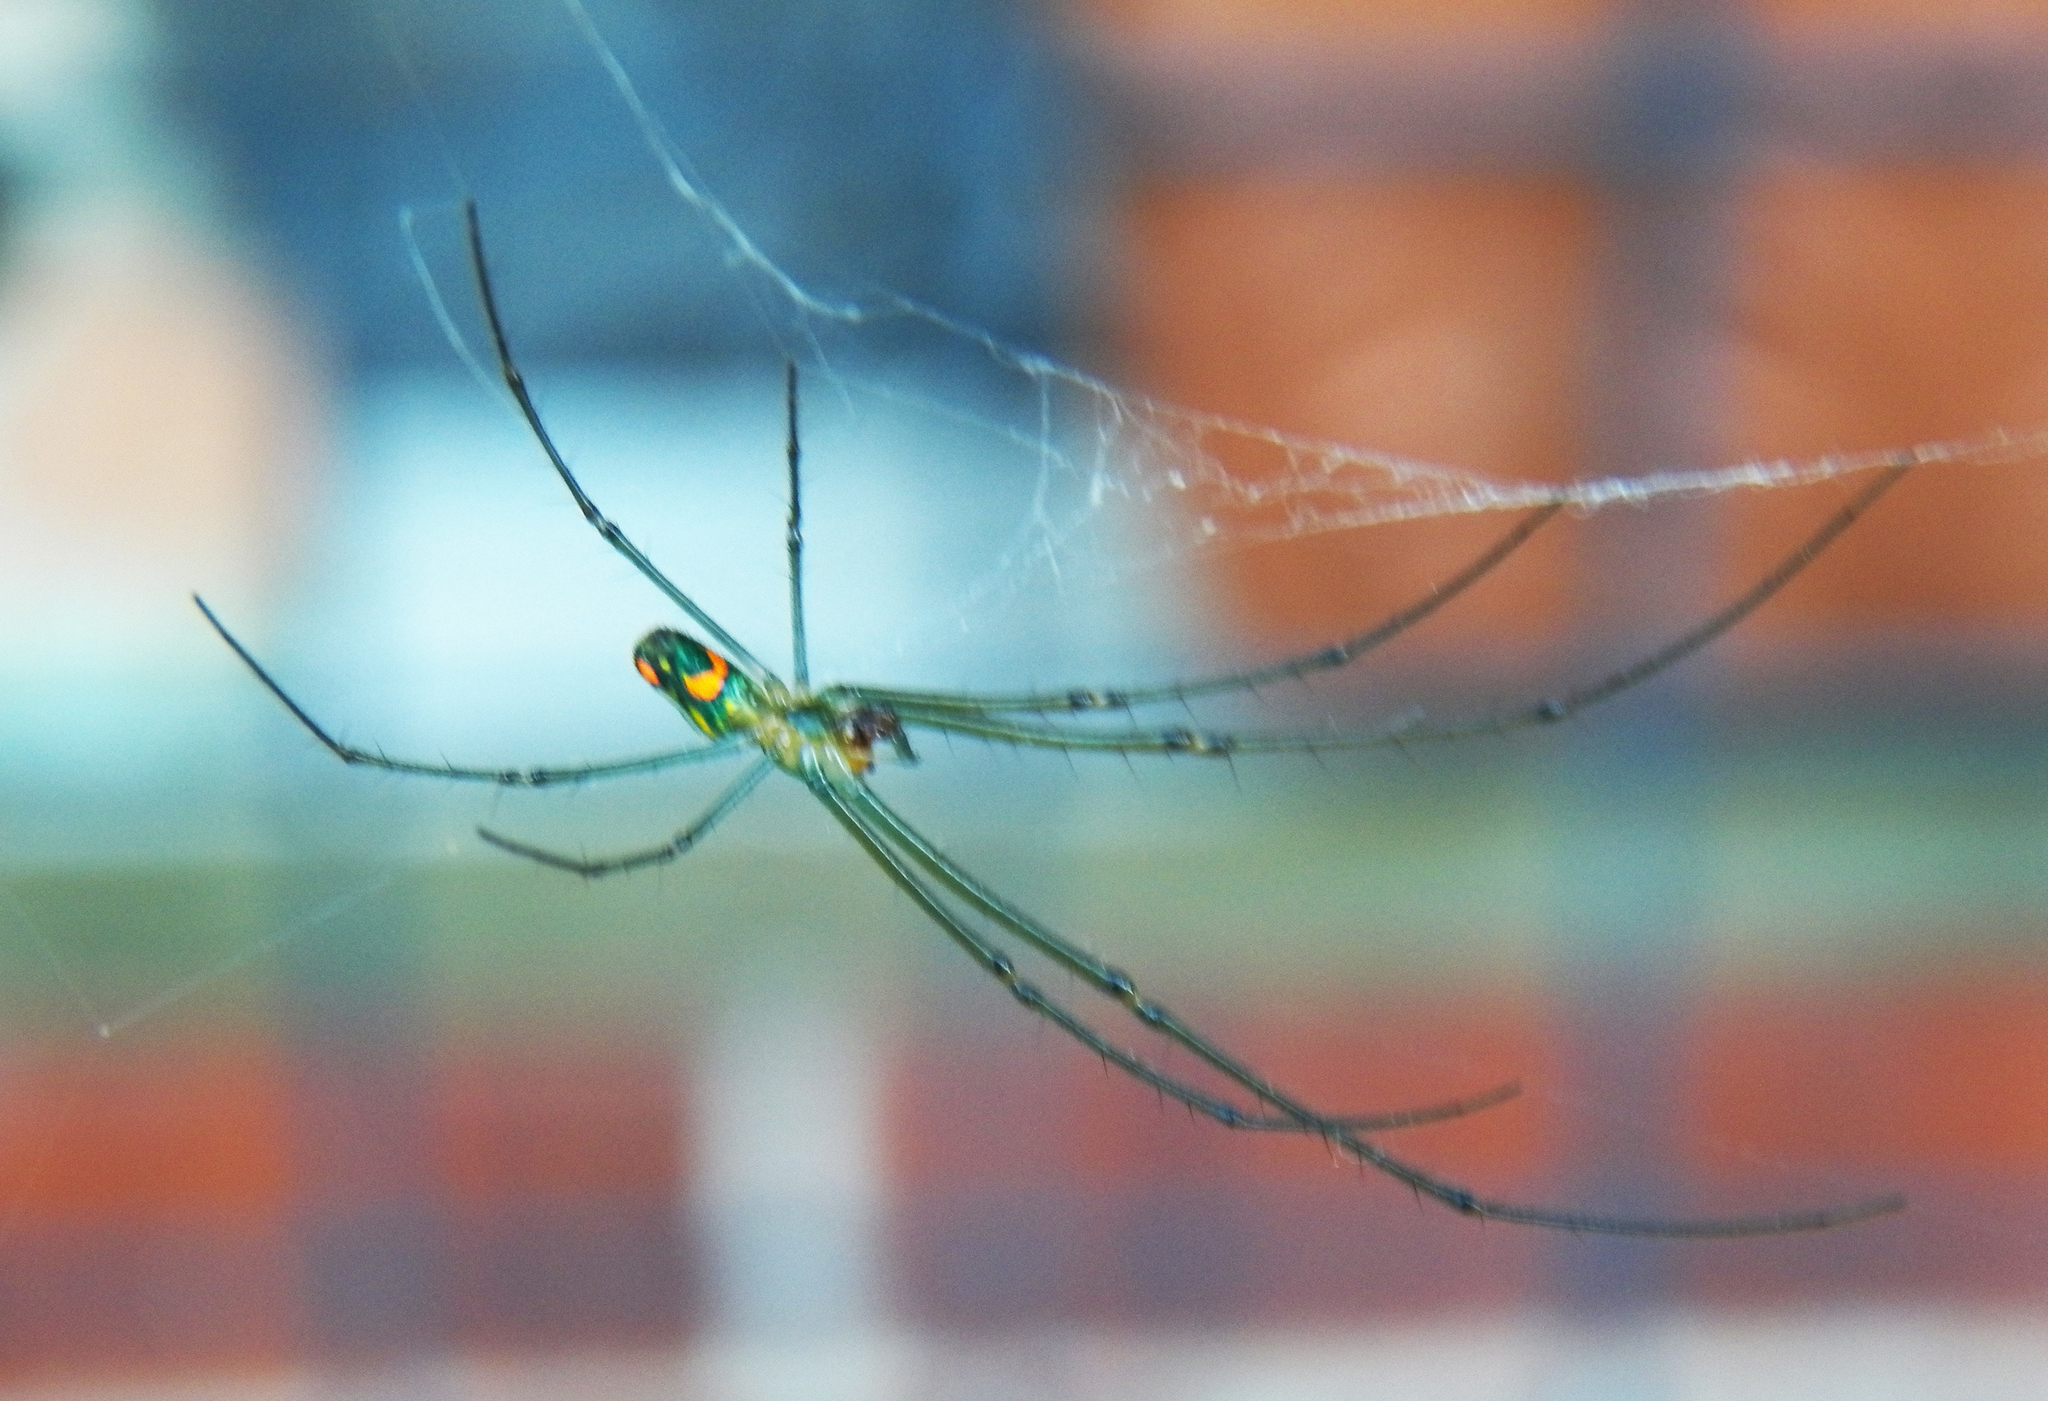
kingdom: Animalia
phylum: Arthropoda
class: Arachnida
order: Araneae
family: Tetragnathidae
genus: Leucauge
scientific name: Leucauge argyrobapta
